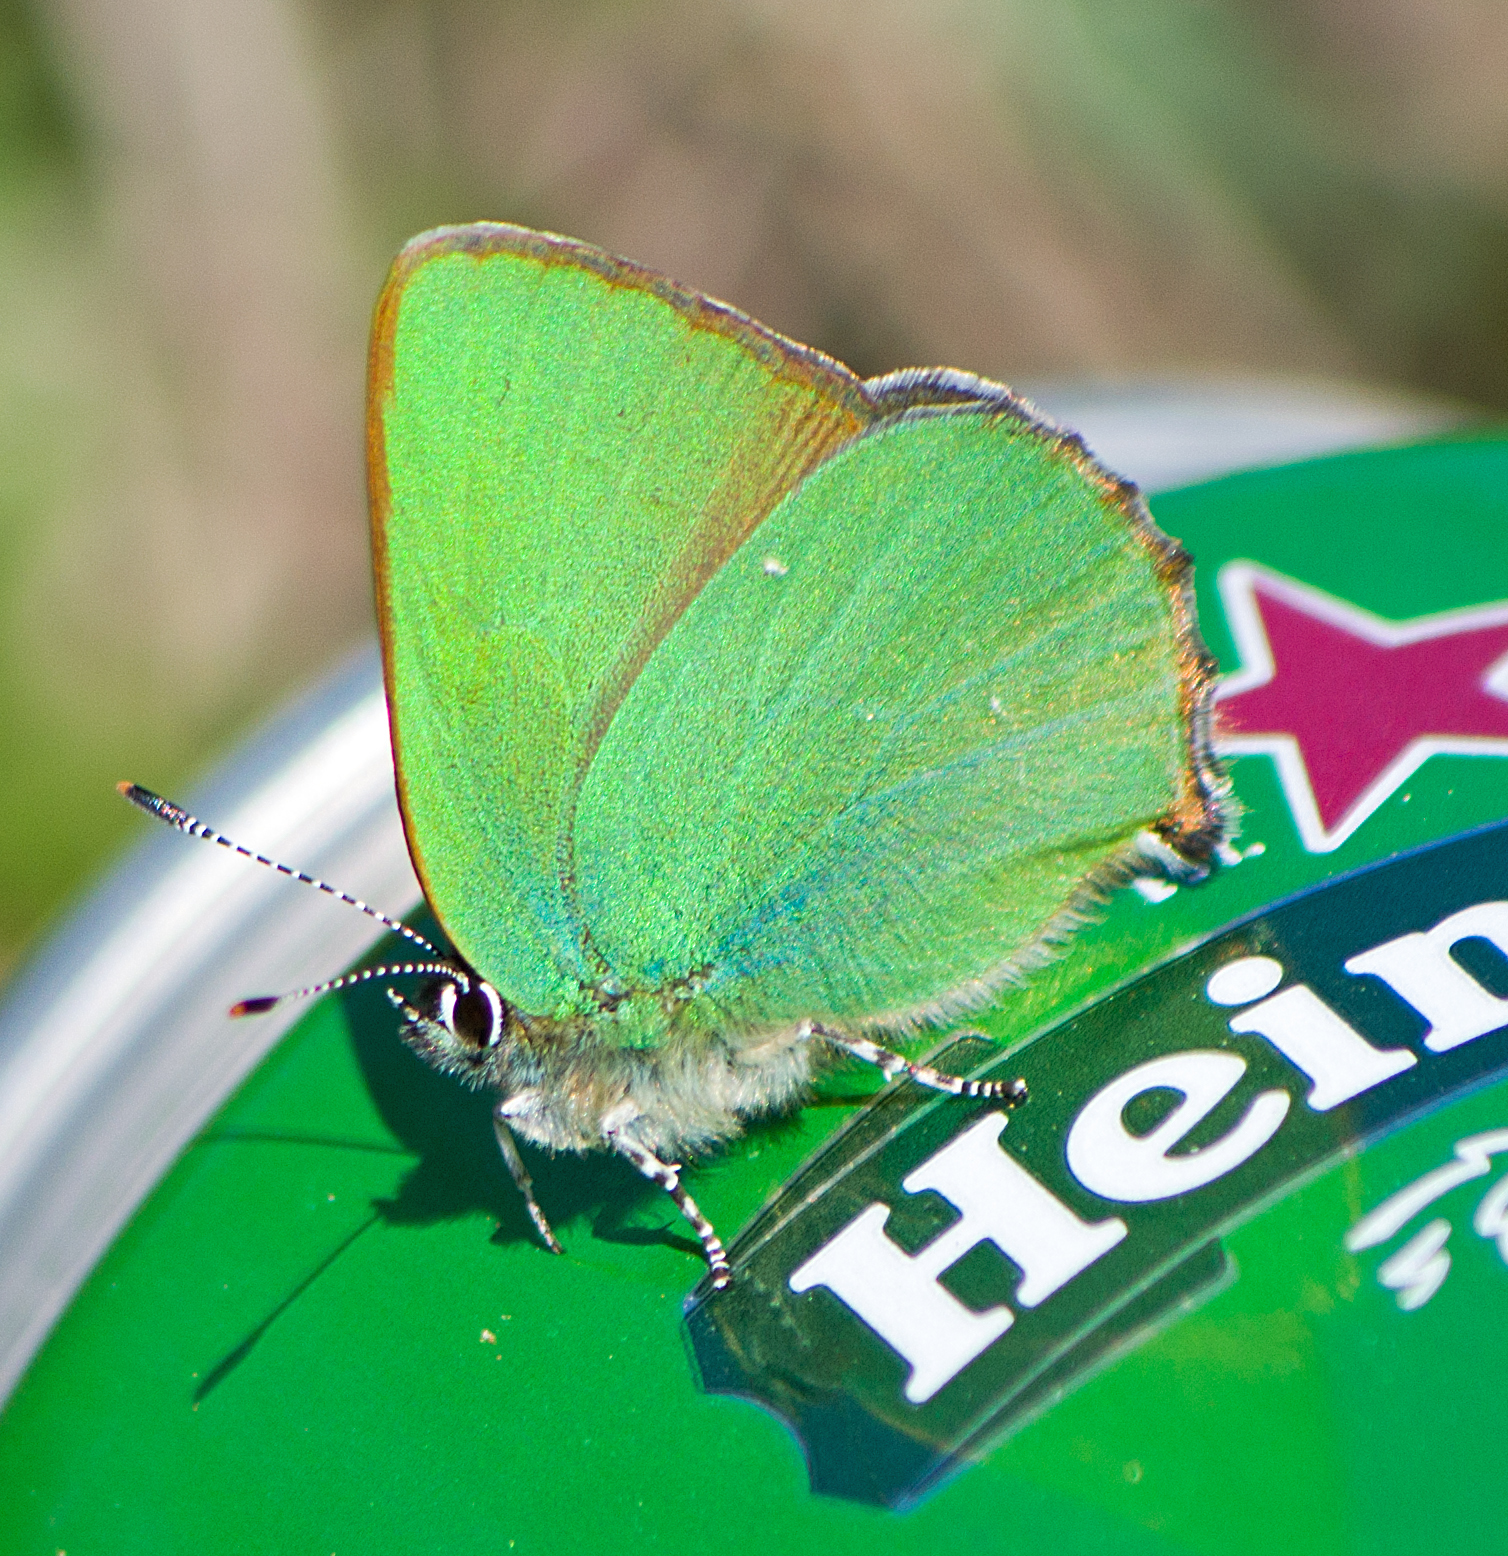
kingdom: Animalia
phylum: Arthropoda
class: Insecta
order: Lepidoptera
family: Lycaenidae
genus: Callophrys
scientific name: Callophrys rubi
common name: Green hairstreak
